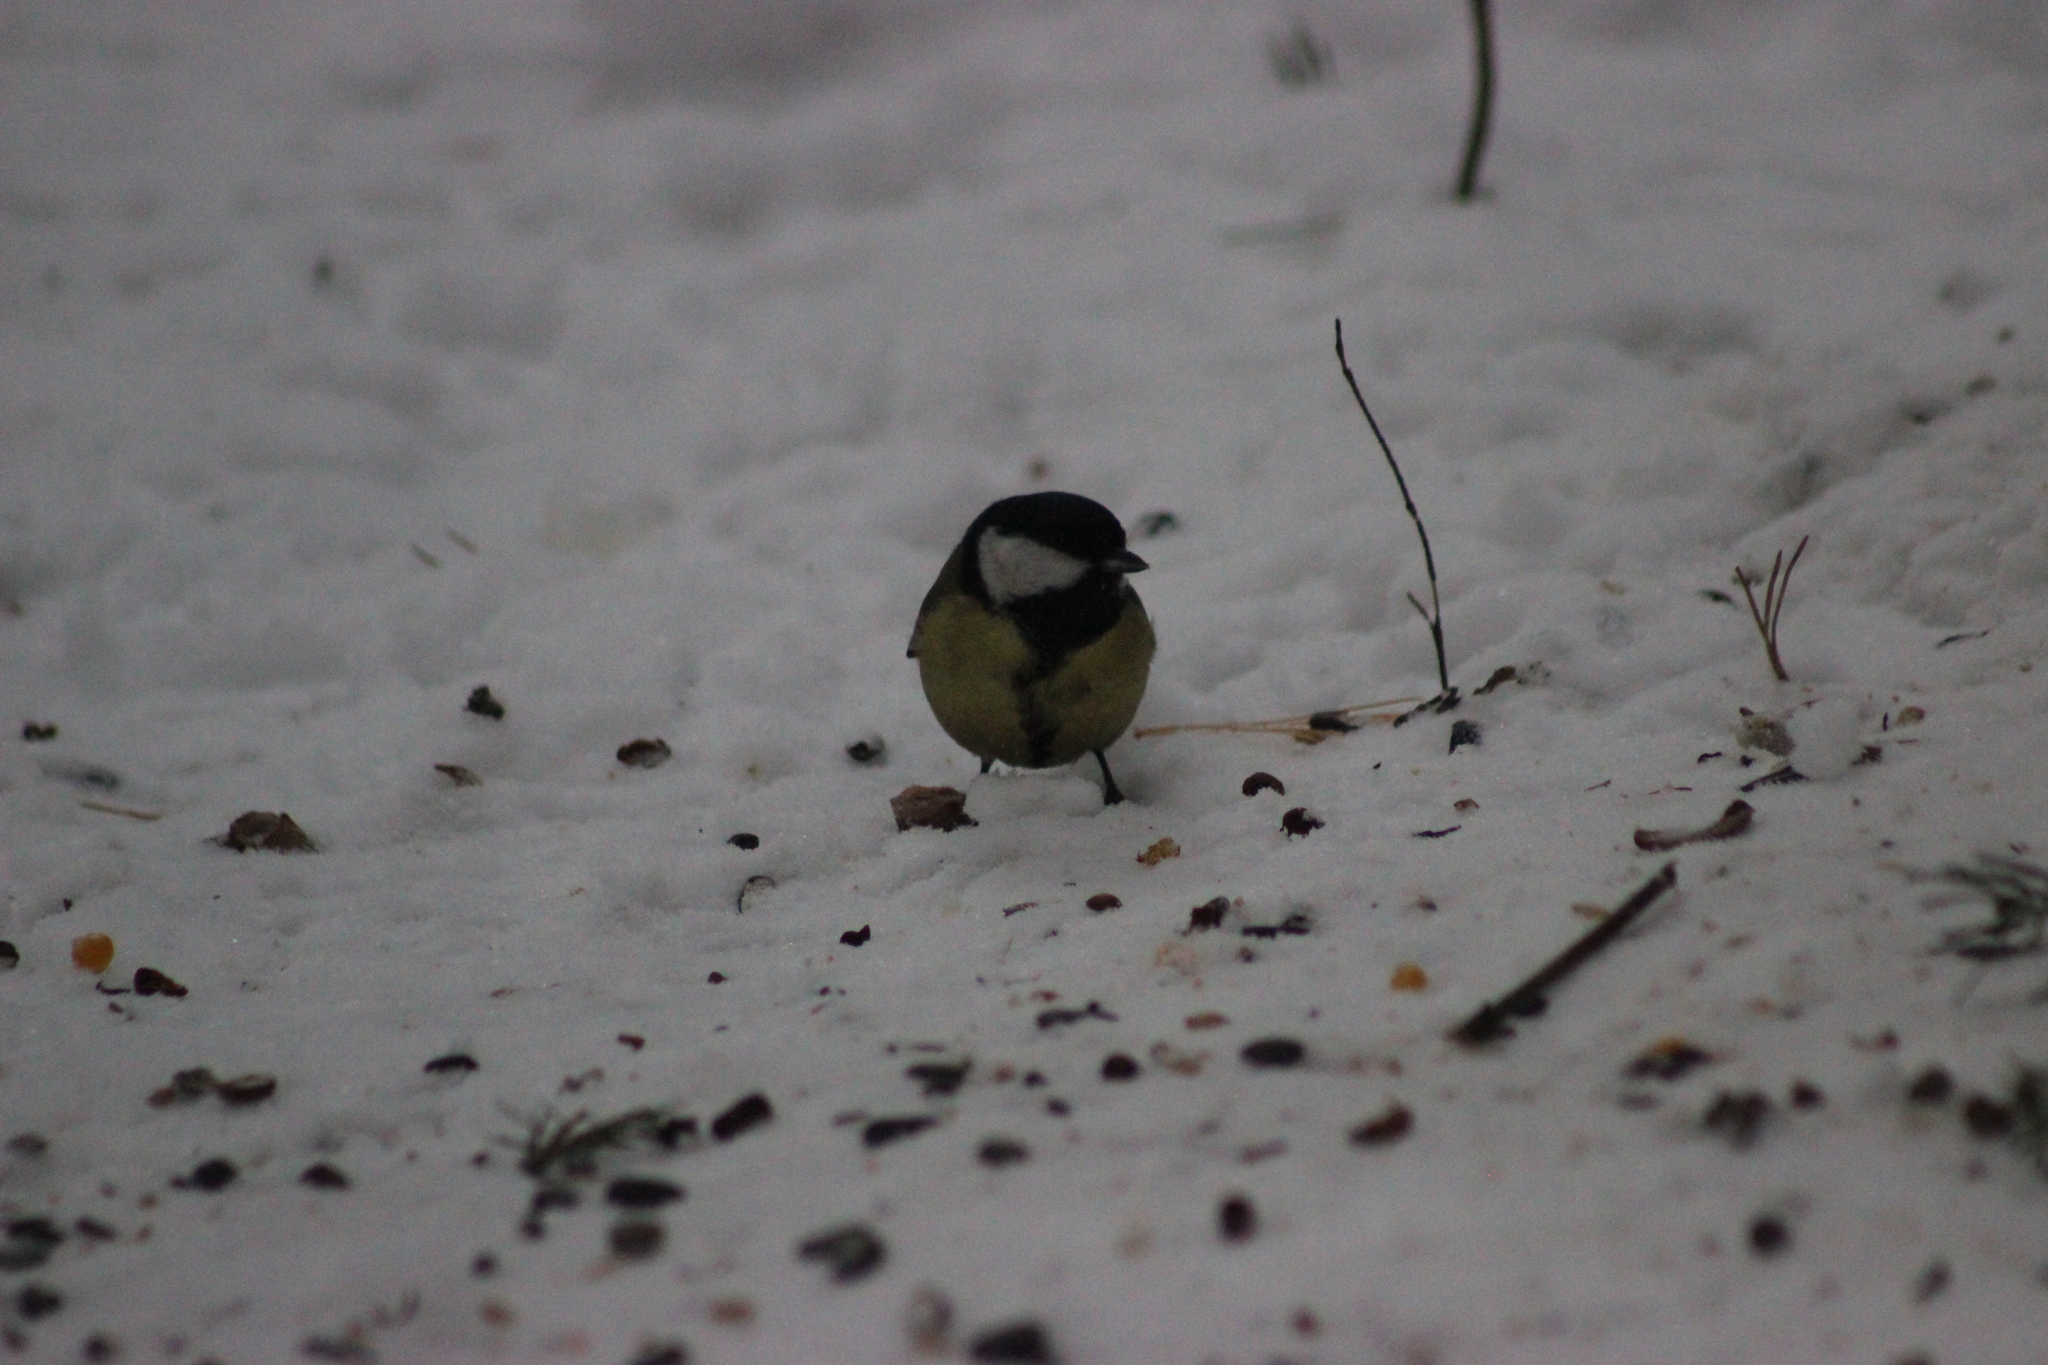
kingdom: Animalia
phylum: Chordata
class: Aves
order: Passeriformes
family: Paridae
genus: Parus
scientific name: Parus major
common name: Great tit
